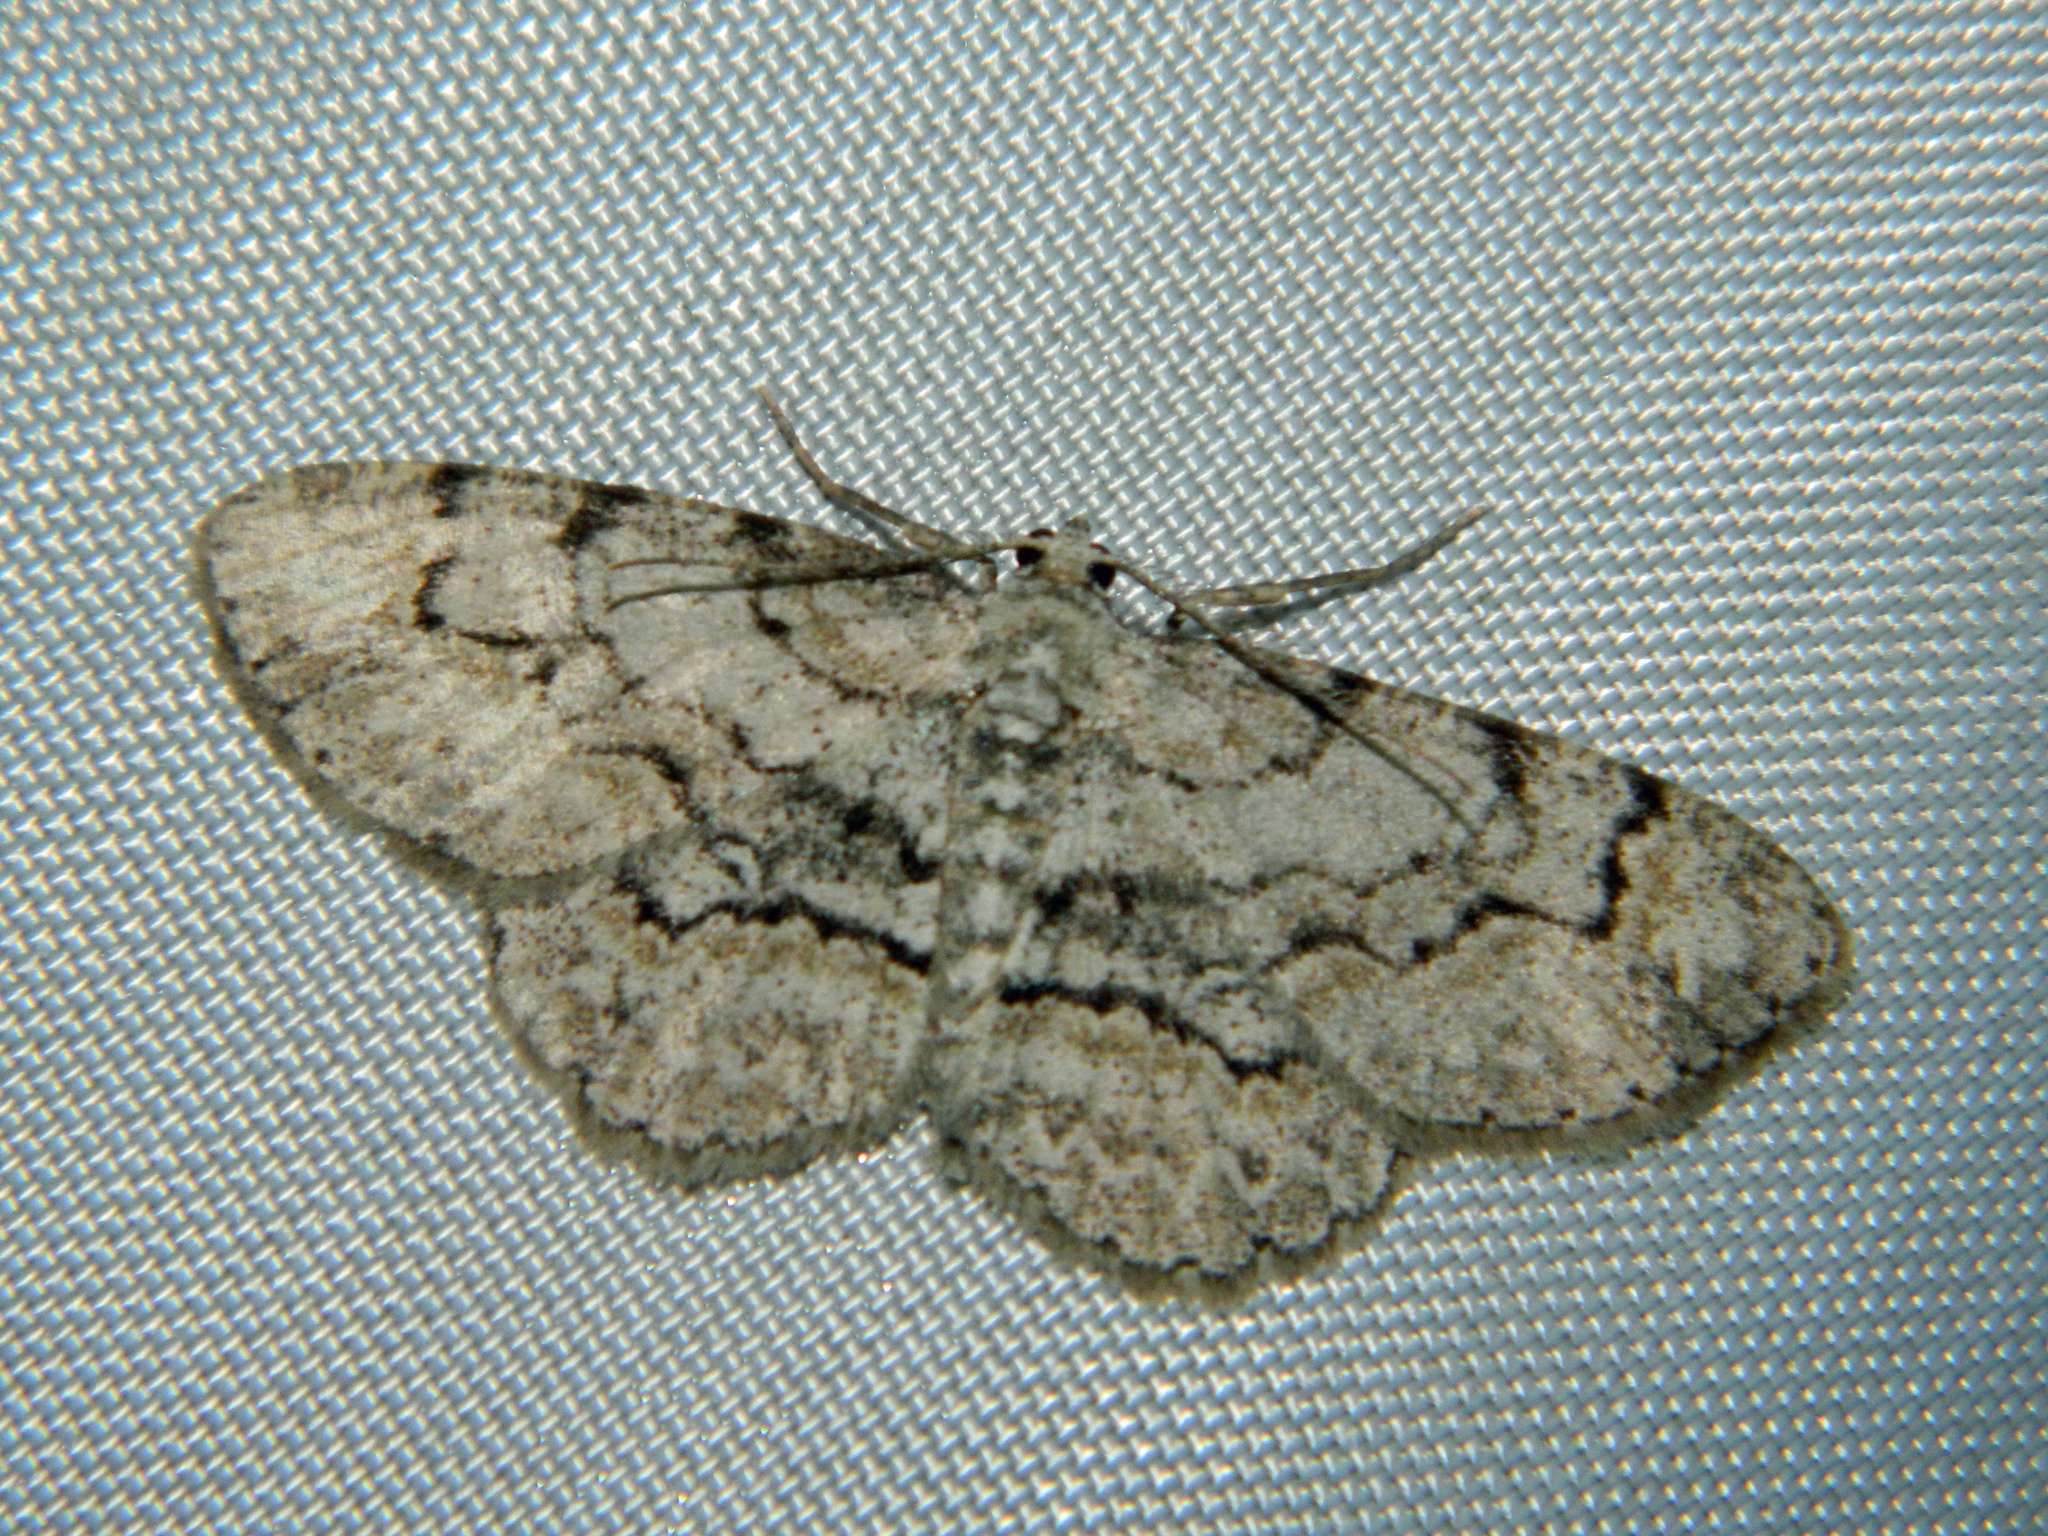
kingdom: Animalia
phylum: Arthropoda
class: Insecta
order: Lepidoptera
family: Geometridae
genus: Iridopsis
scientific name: Iridopsis ephyraria
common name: Pale-winged gray
